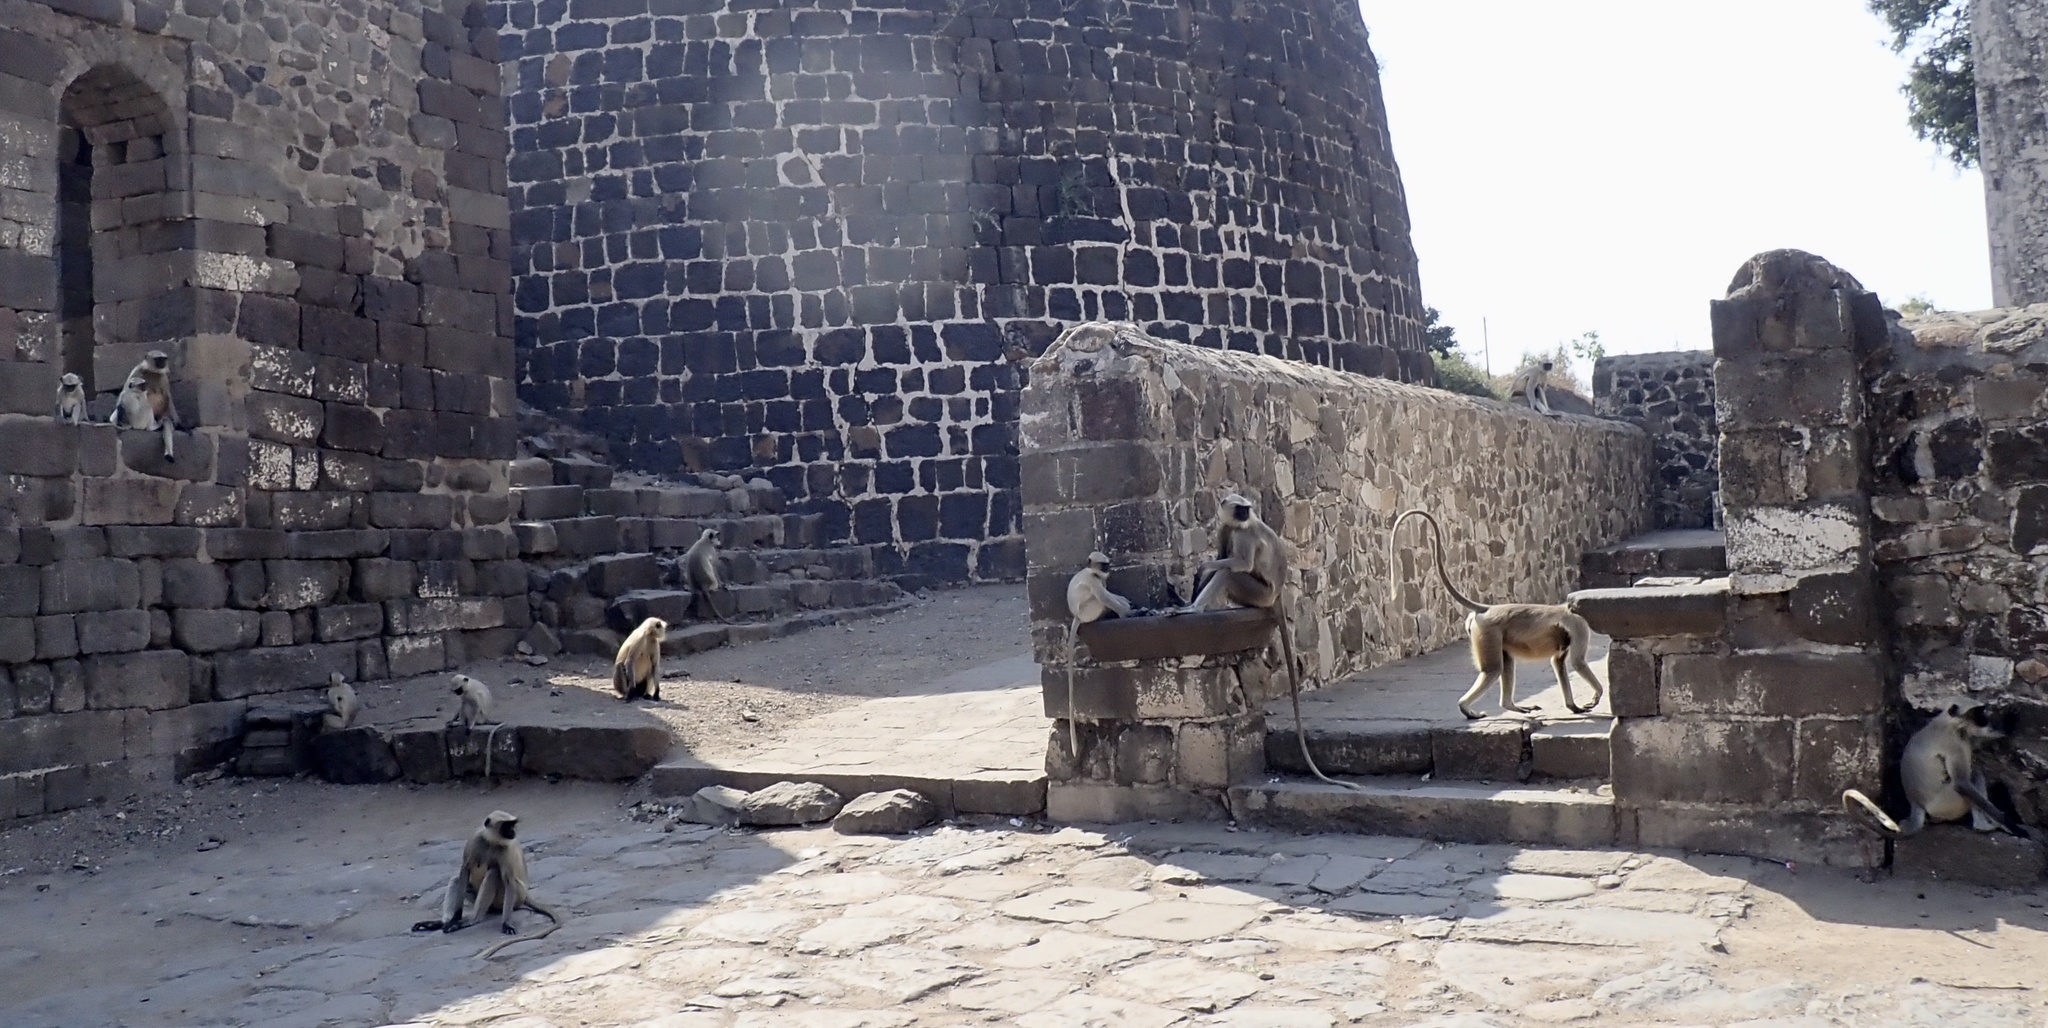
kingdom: Animalia
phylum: Chordata
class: Mammalia
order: Primates
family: Cercopithecidae
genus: Semnopithecus
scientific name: Semnopithecus hypoleucos
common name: Black-footed gray langur
